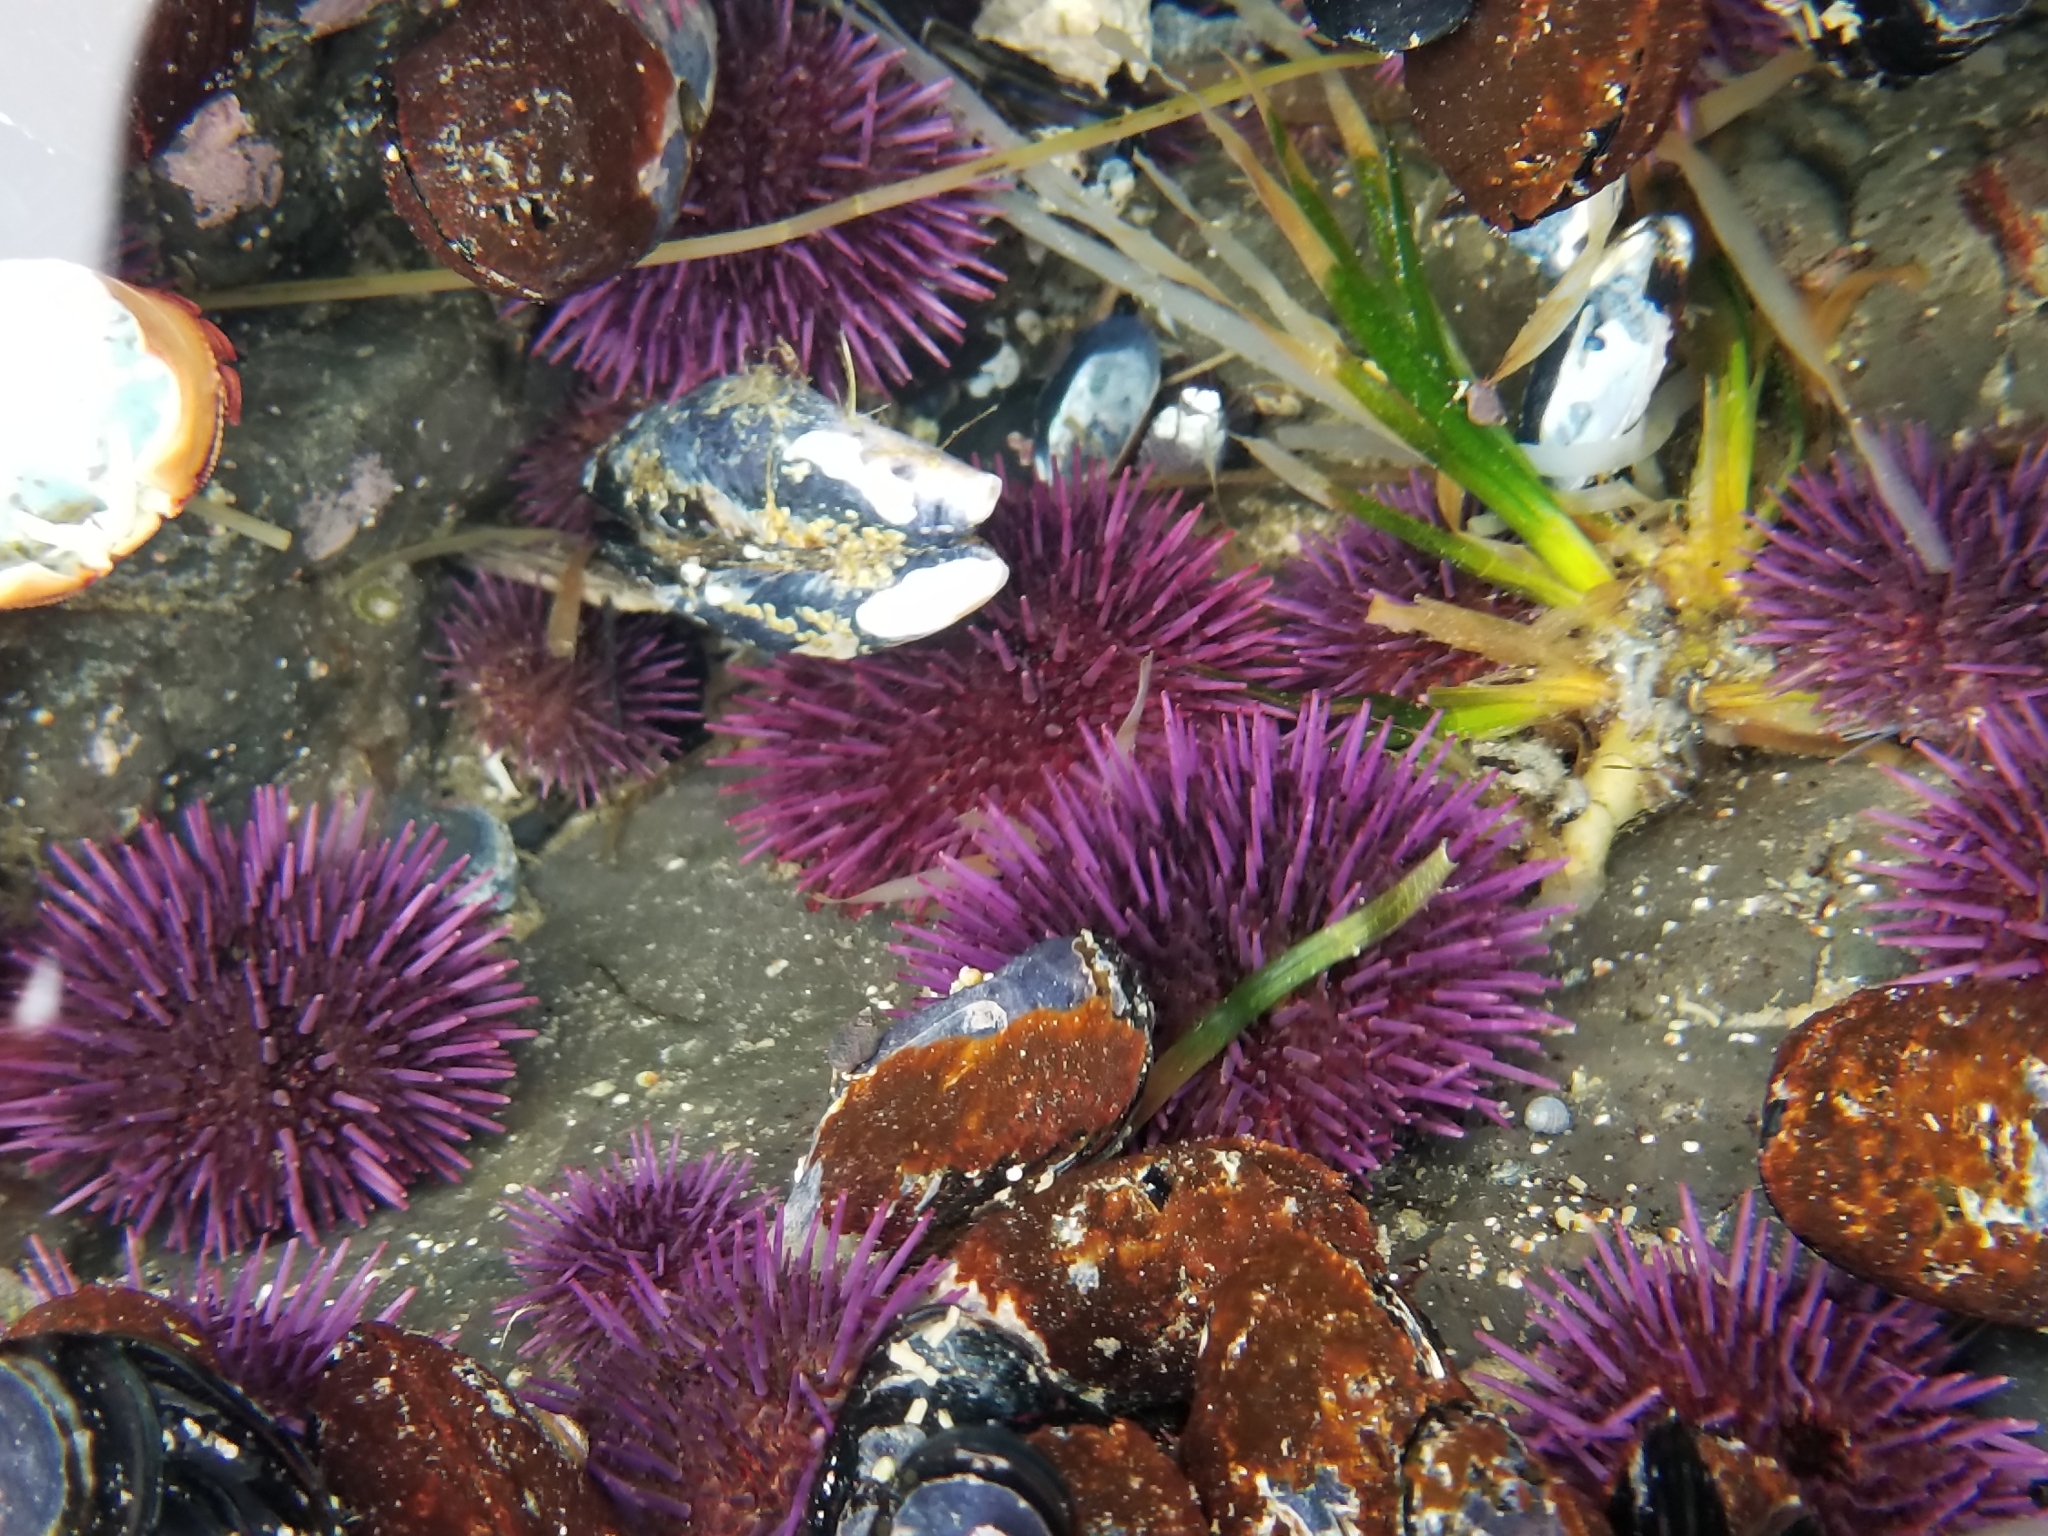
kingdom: Animalia
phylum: Echinodermata
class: Echinoidea
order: Camarodonta
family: Strongylocentrotidae
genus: Strongylocentrotus
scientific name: Strongylocentrotus purpuratus
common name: Purple sea urchin
